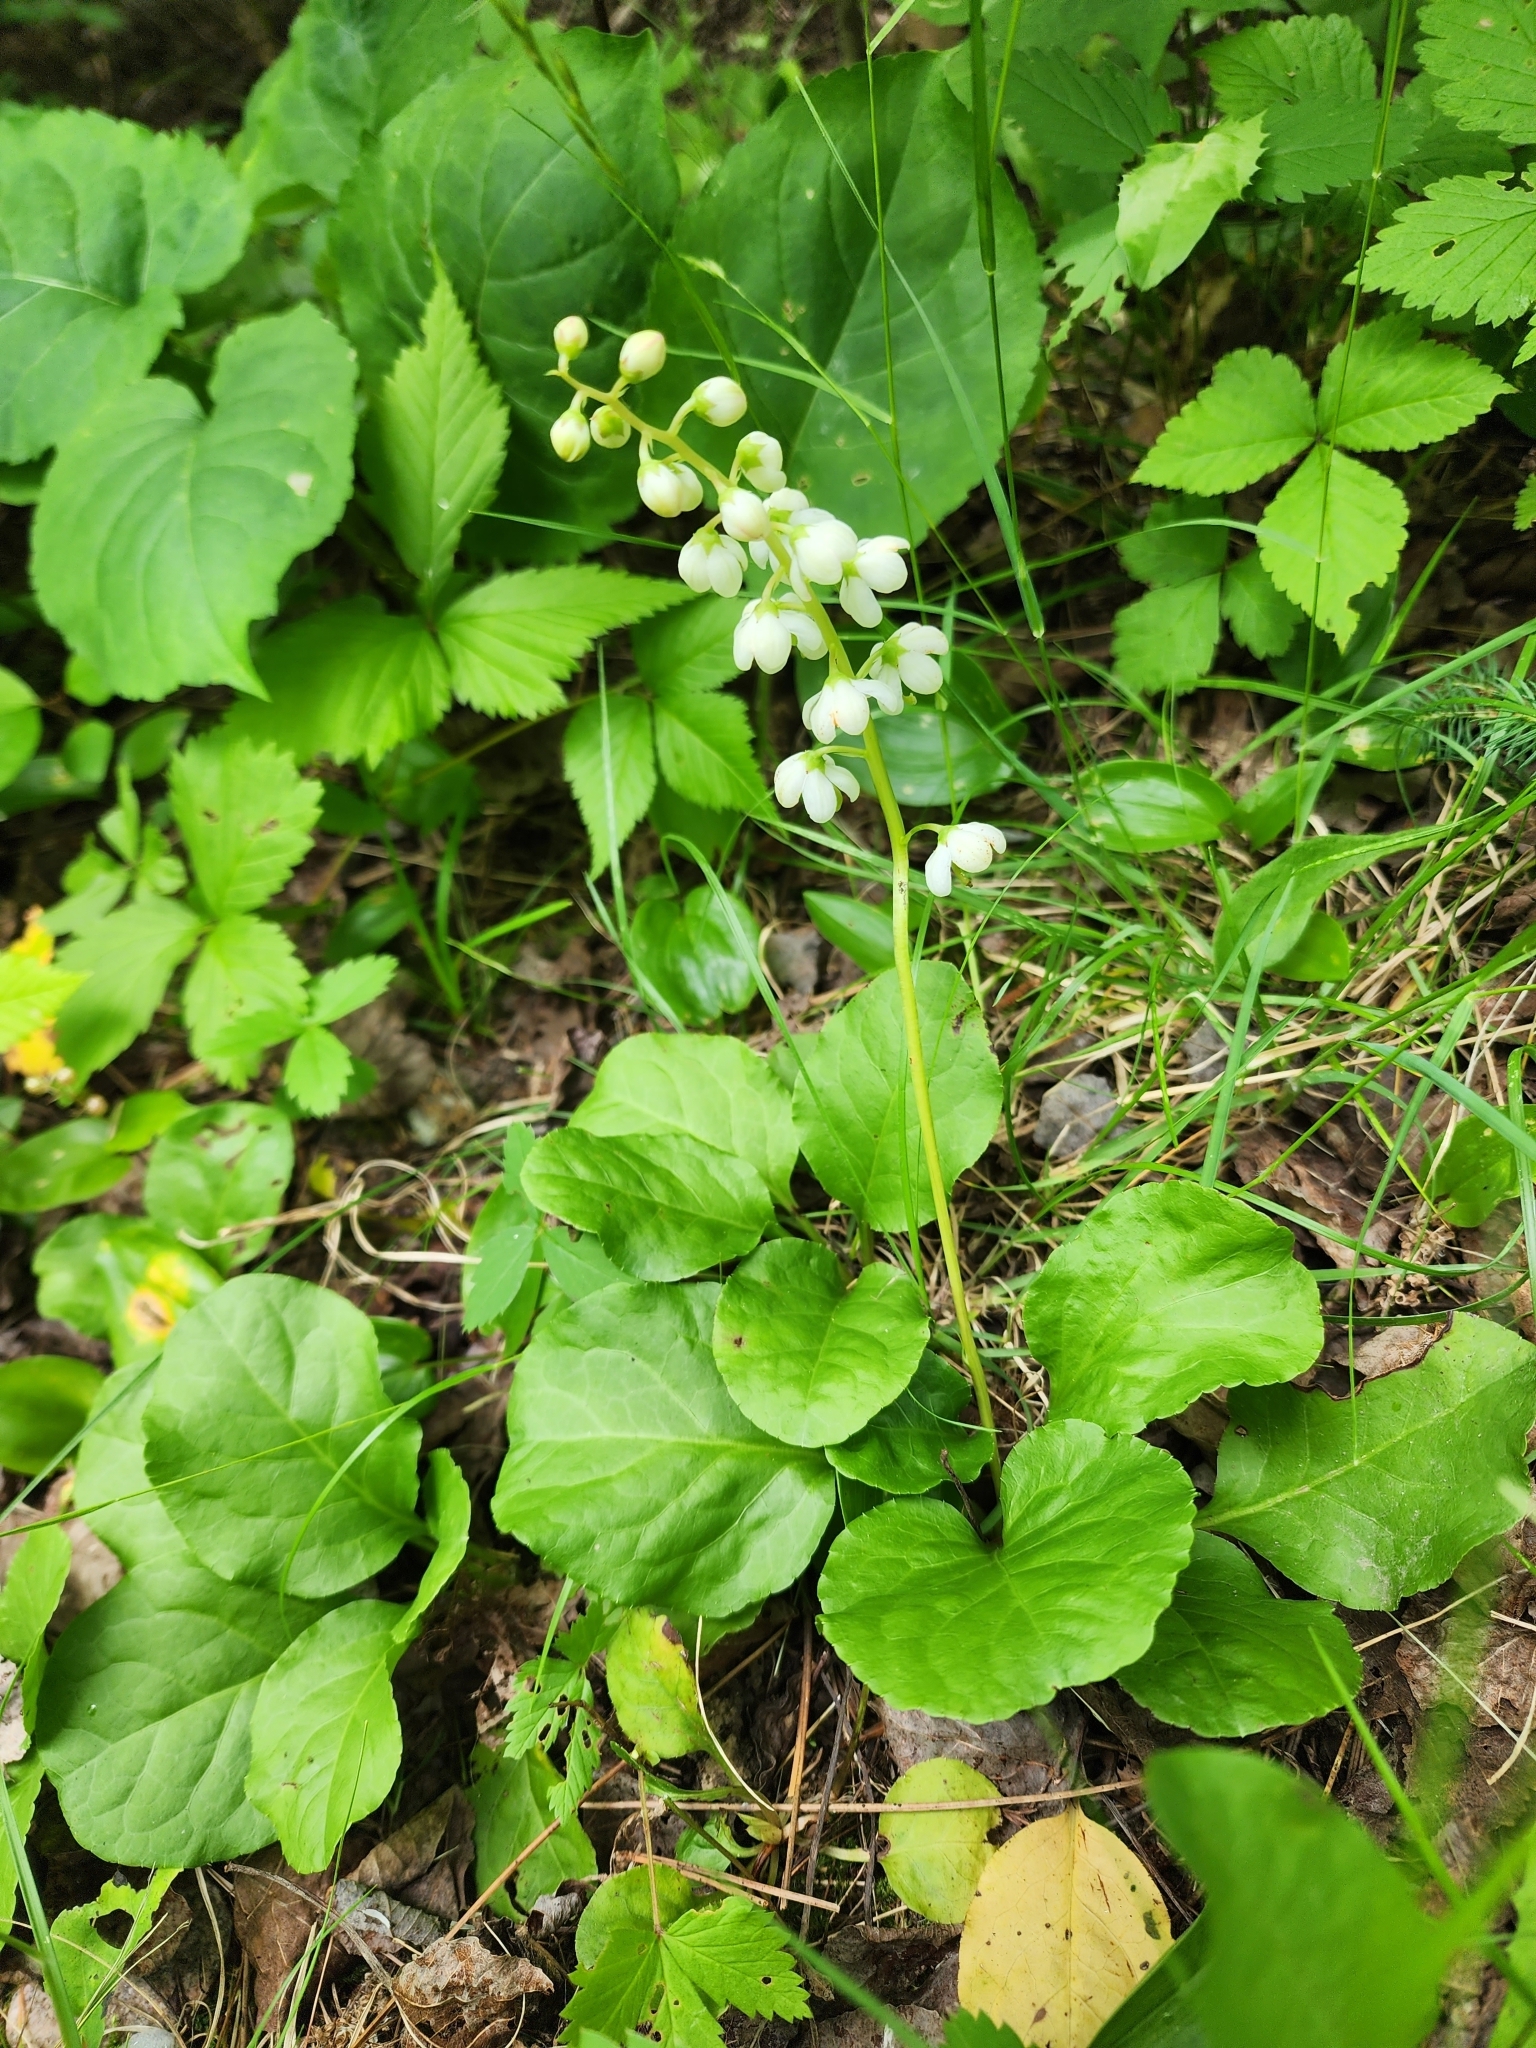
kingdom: Plantae
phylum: Tracheophyta
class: Magnoliopsida
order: Ericales
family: Ericaceae
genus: Pyrola
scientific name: Pyrola elliptica
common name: Shinleaf
